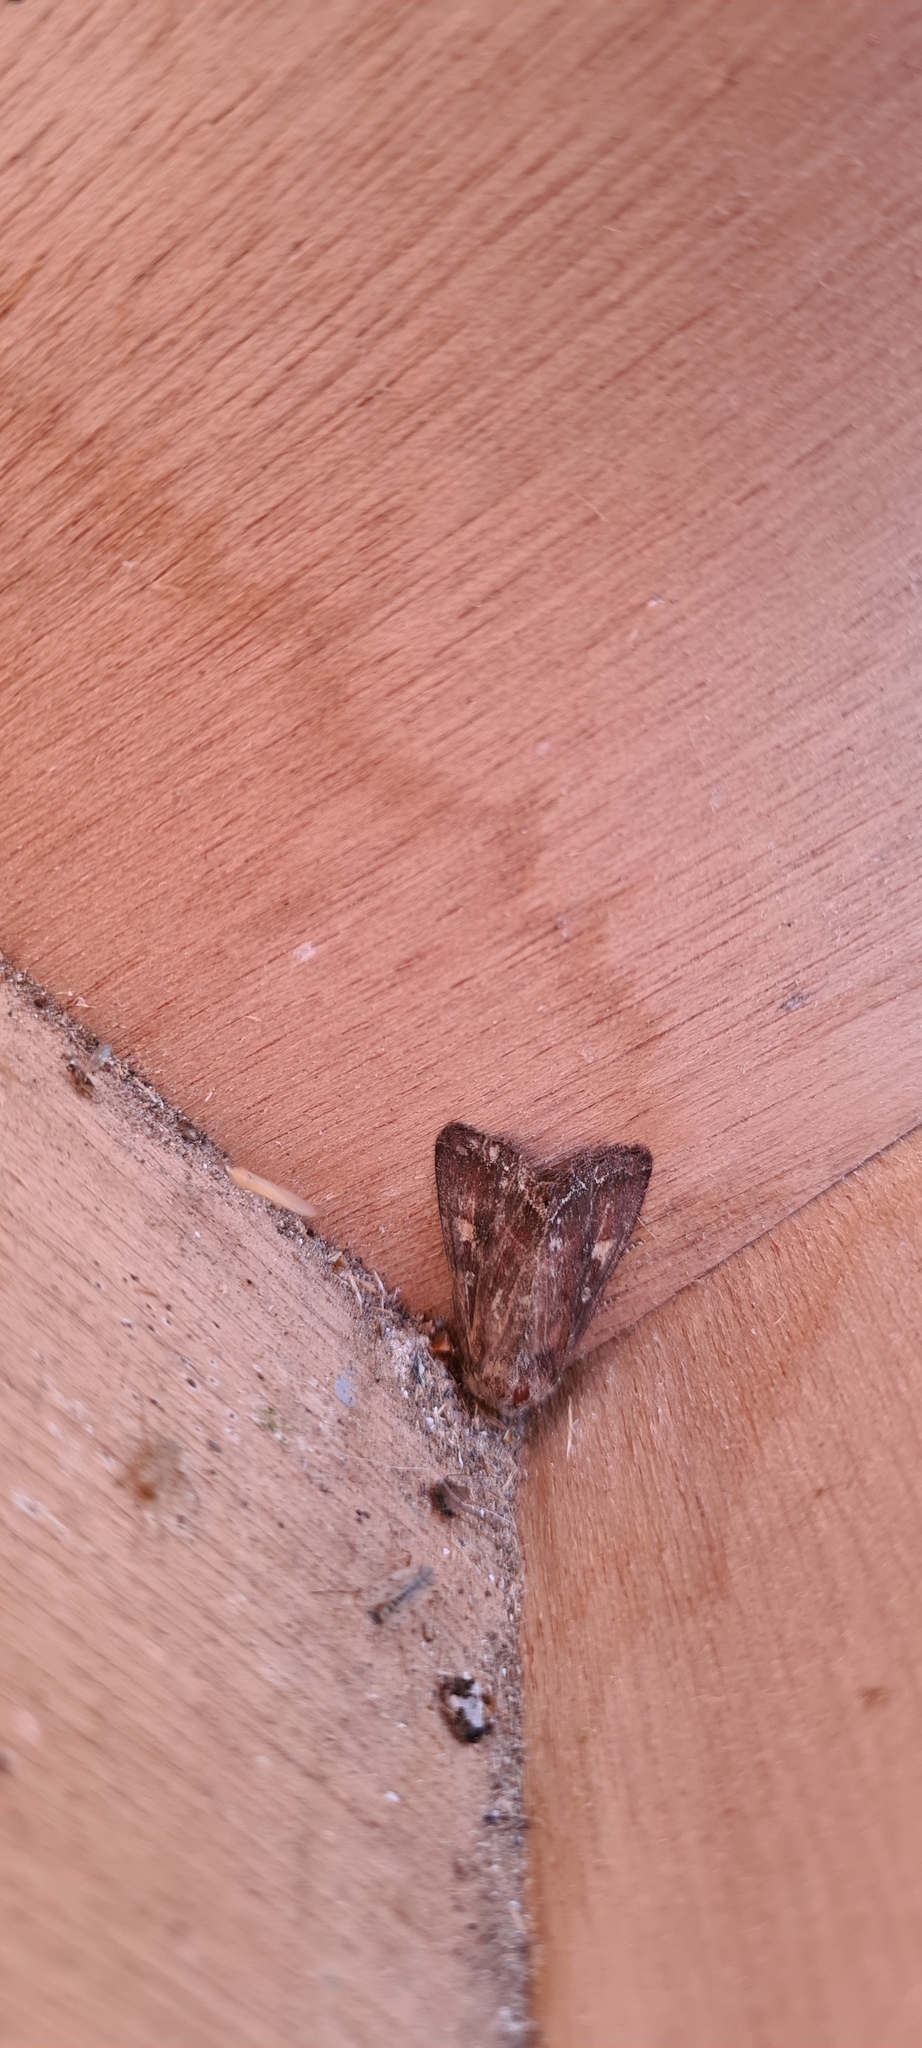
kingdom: Animalia
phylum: Arthropoda
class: Insecta
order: Lepidoptera
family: Noctuidae
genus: Lacanobia
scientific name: Lacanobia oleracea
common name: Bright-line brown-eye
